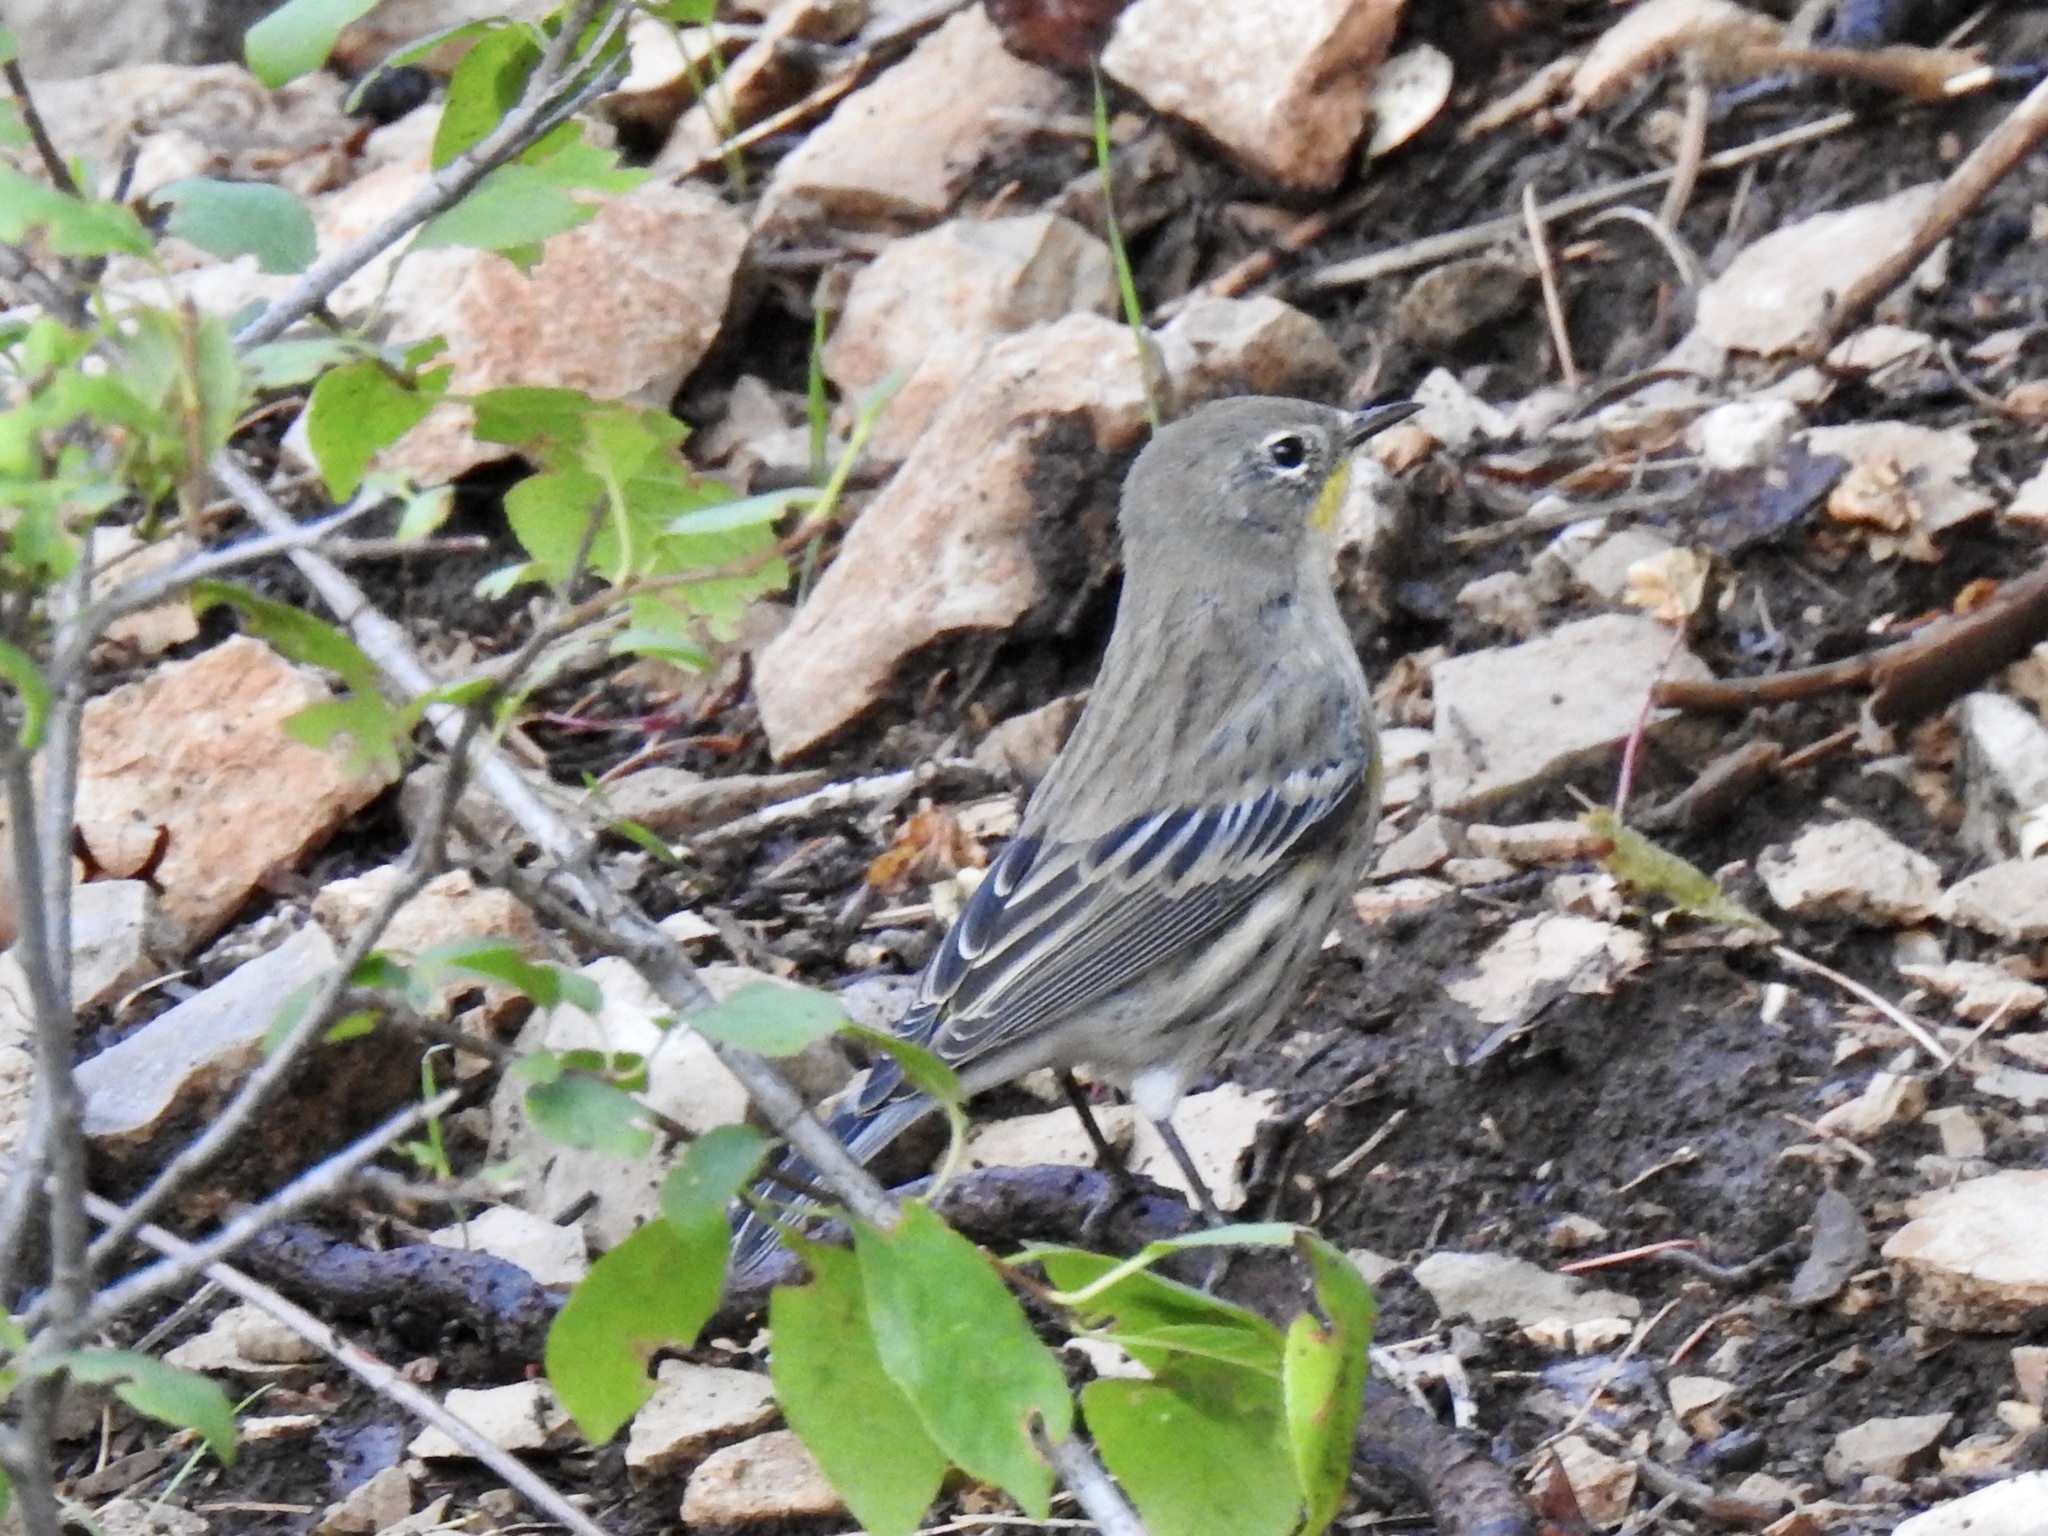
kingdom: Animalia
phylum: Chordata
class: Aves
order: Passeriformes
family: Parulidae
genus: Setophaga
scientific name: Setophaga coronata
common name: Myrtle warbler
